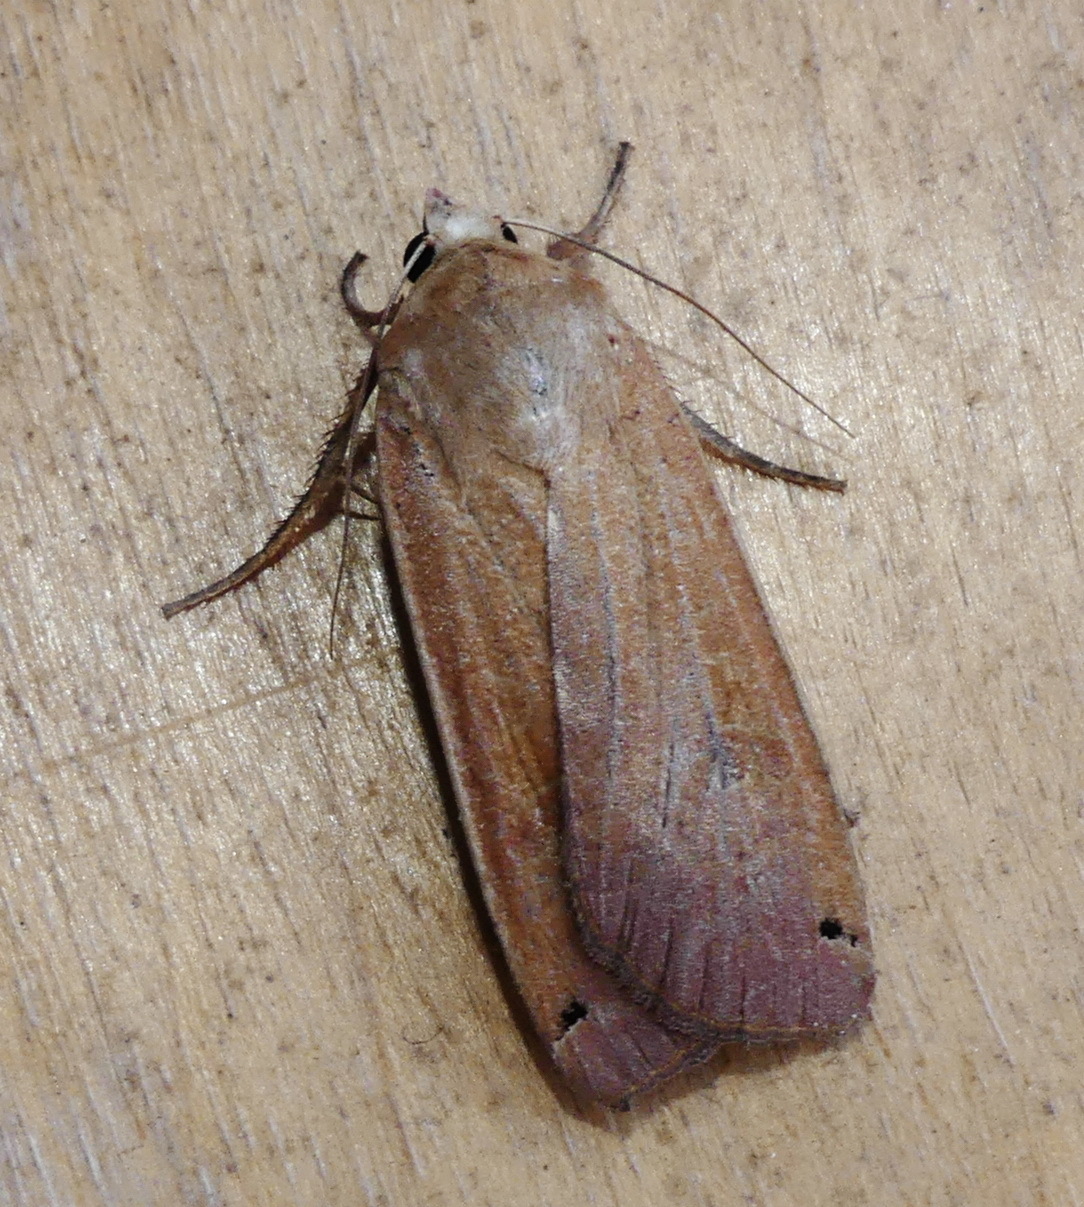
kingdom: Animalia
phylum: Arthropoda
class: Insecta
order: Lepidoptera
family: Noctuidae
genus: Noctua
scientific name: Noctua pronuba
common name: Large yellow underwing
